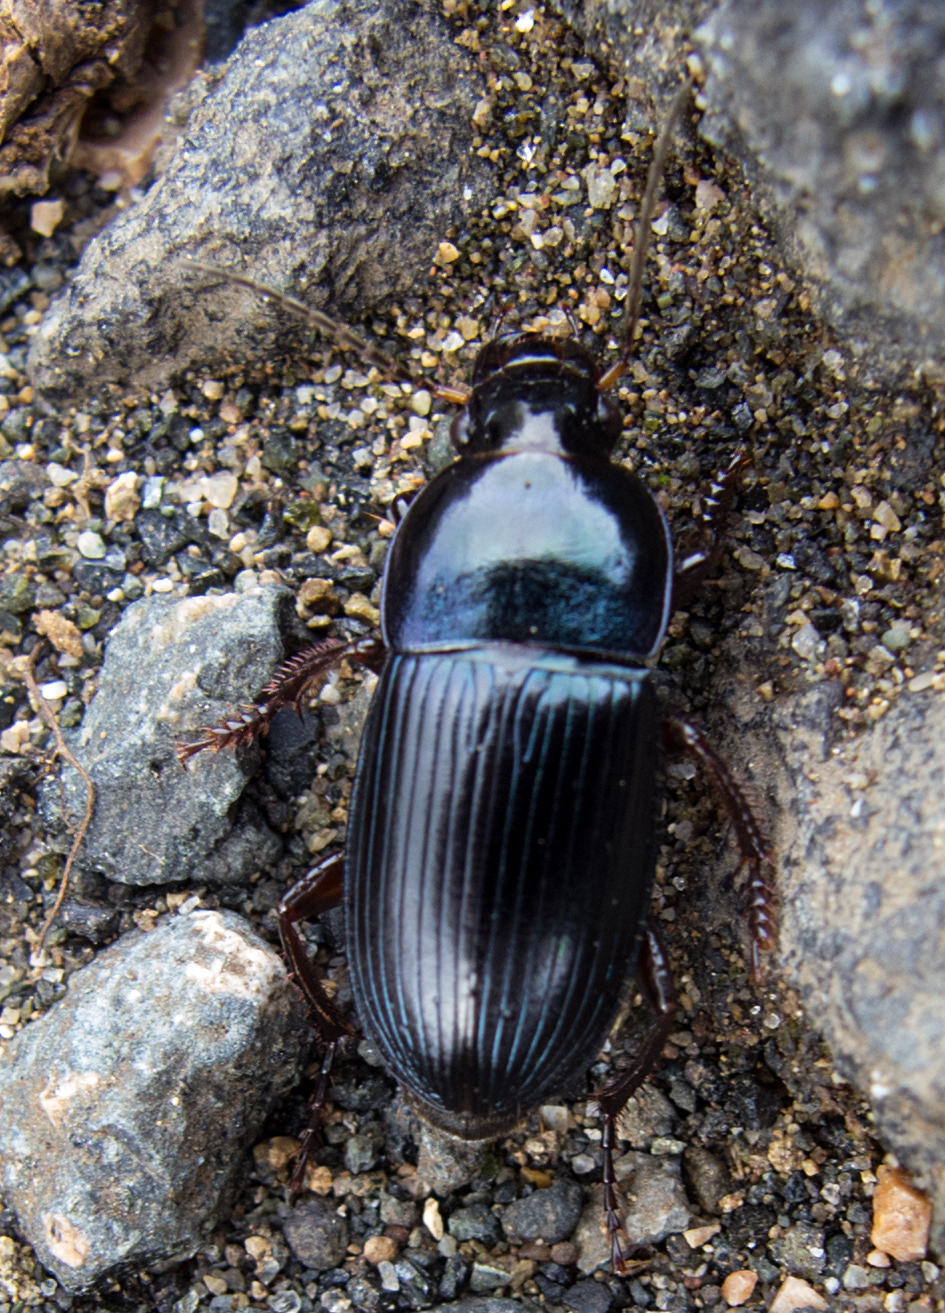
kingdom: Animalia
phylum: Arthropoda
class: Insecta
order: Coleoptera
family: Carabidae
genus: Harpalus
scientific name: Harpalus caspius
